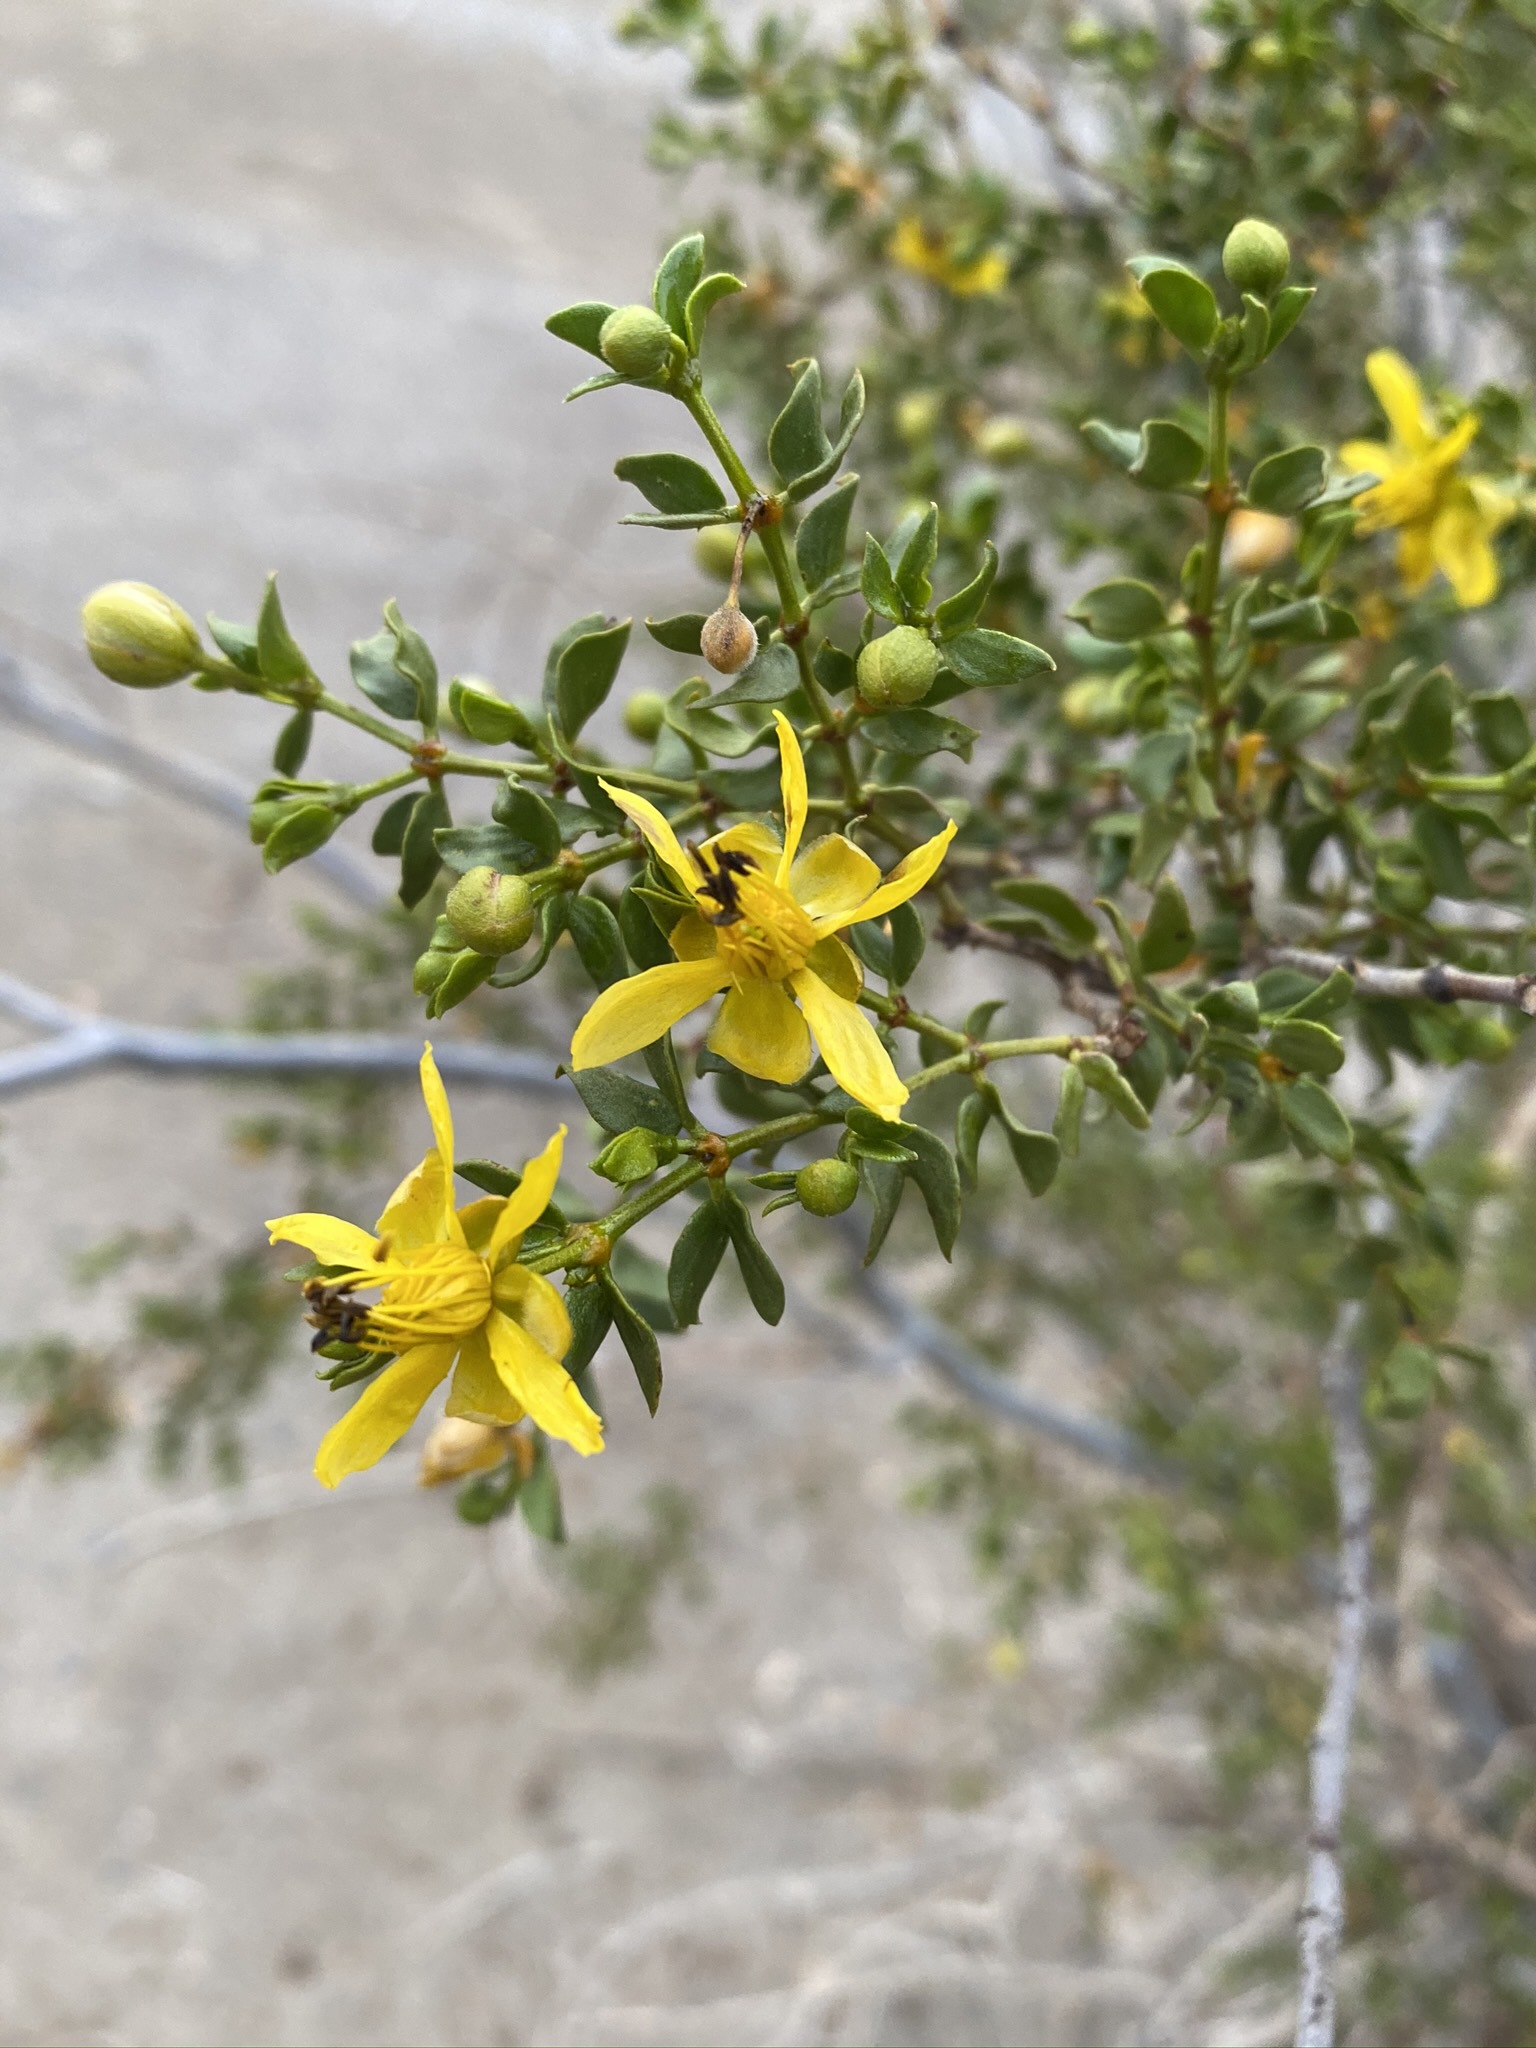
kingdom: Plantae
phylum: Tracheophyta
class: Magnoliopsida
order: Zygophyllales
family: Zygophyllaceae
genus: Larrea
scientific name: Larrea tridentata
